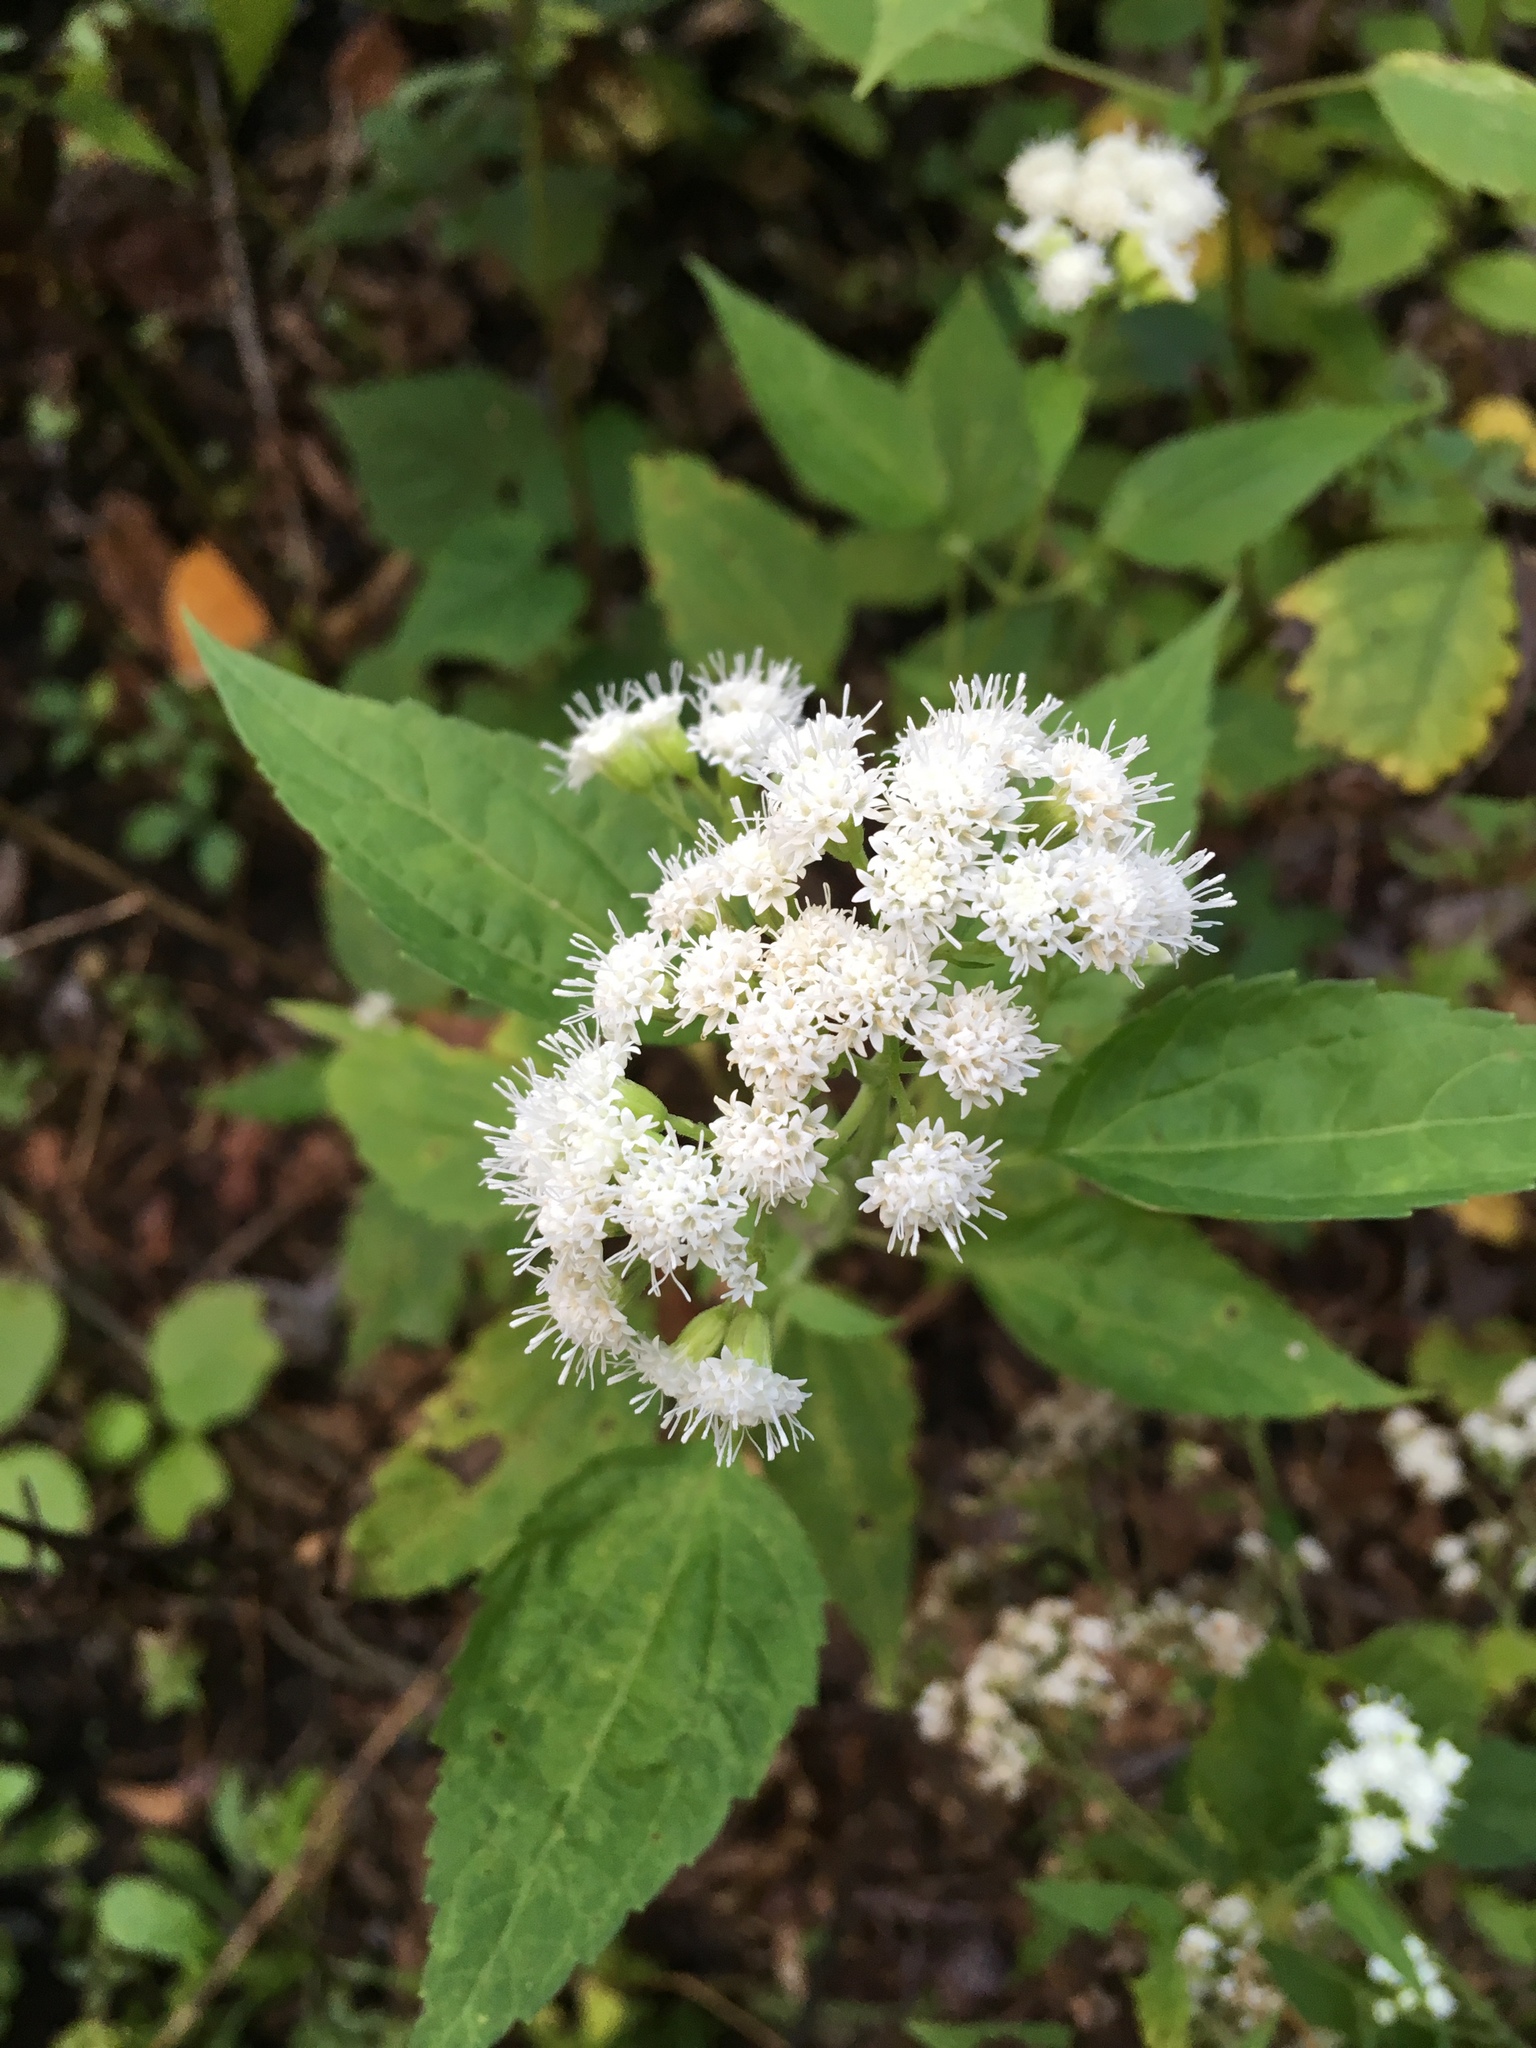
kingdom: Plantae
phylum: Tracheophyta
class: Magnoliopsida
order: Asterales
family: Asteraceae
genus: Ageratina
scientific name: Ageratina altissima
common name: White snakeroot
